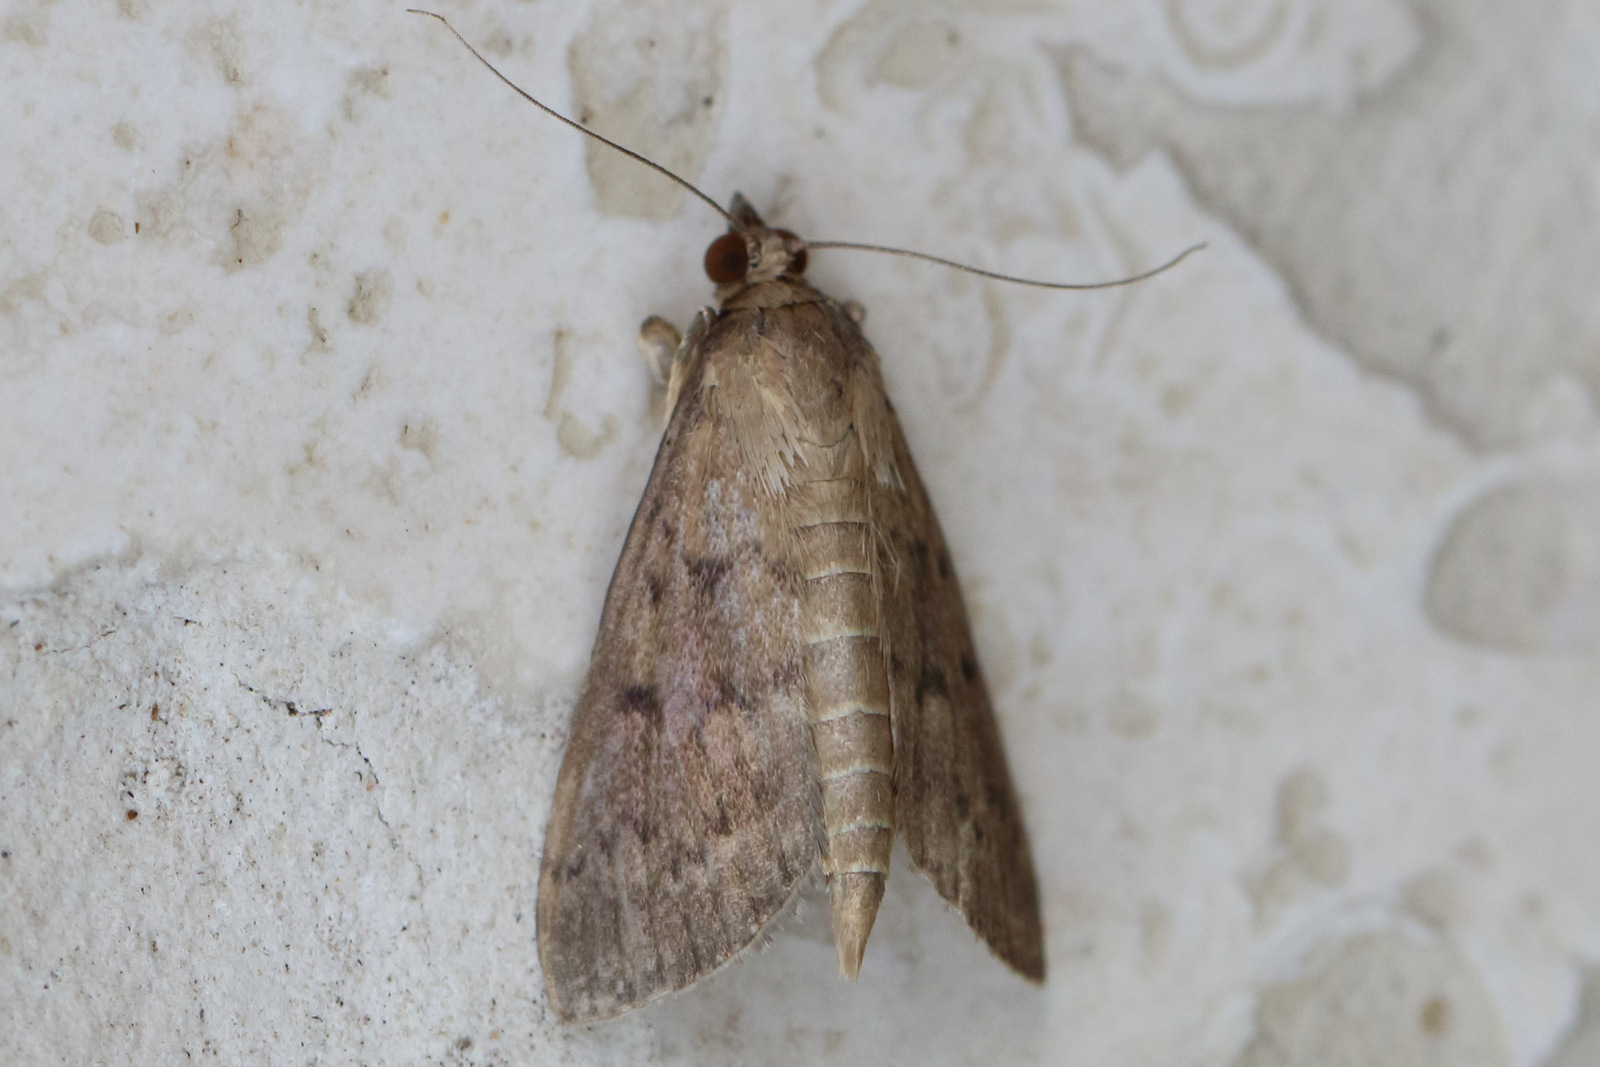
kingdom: Animalia
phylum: Arthropoda
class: Insecta
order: Lepidoptera
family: Crambidae
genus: Herpetogramma
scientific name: Herpetogramma licarsisalis
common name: Grass webworm
